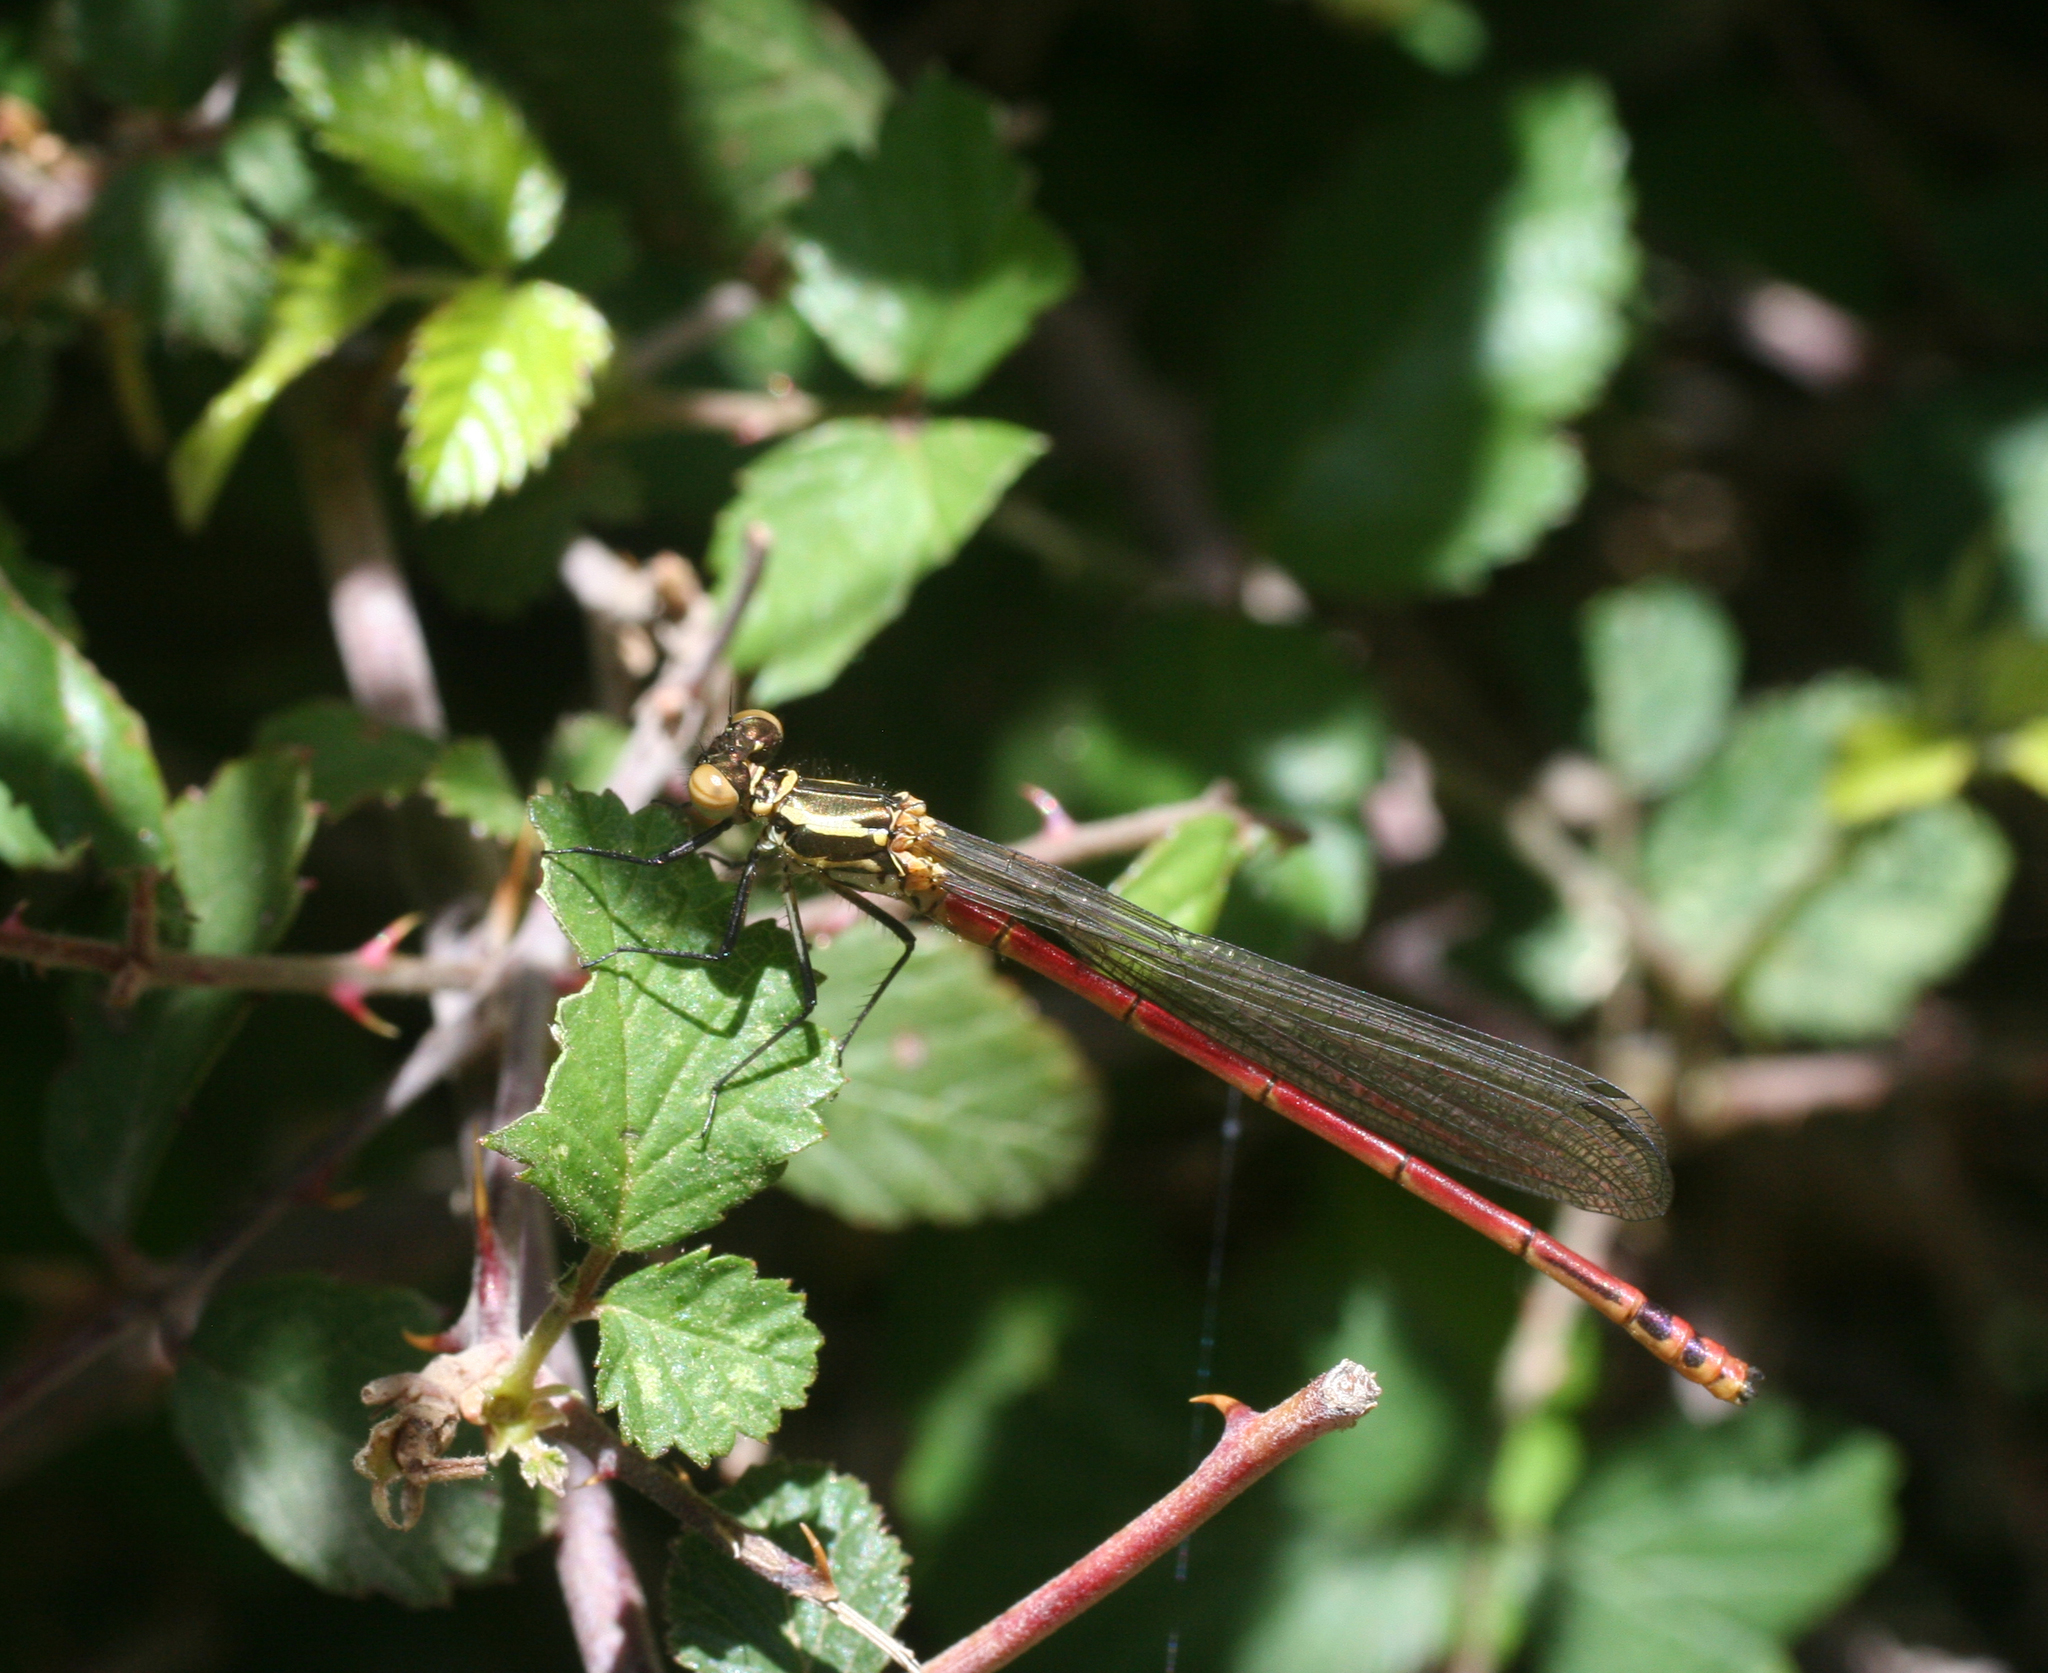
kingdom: Animalia
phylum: Arthropoda
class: Insecta
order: Odonata
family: Coenagrionidae
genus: Pyrrhosoma
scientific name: Pyrrhosoma nymphula
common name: Large red damsel
